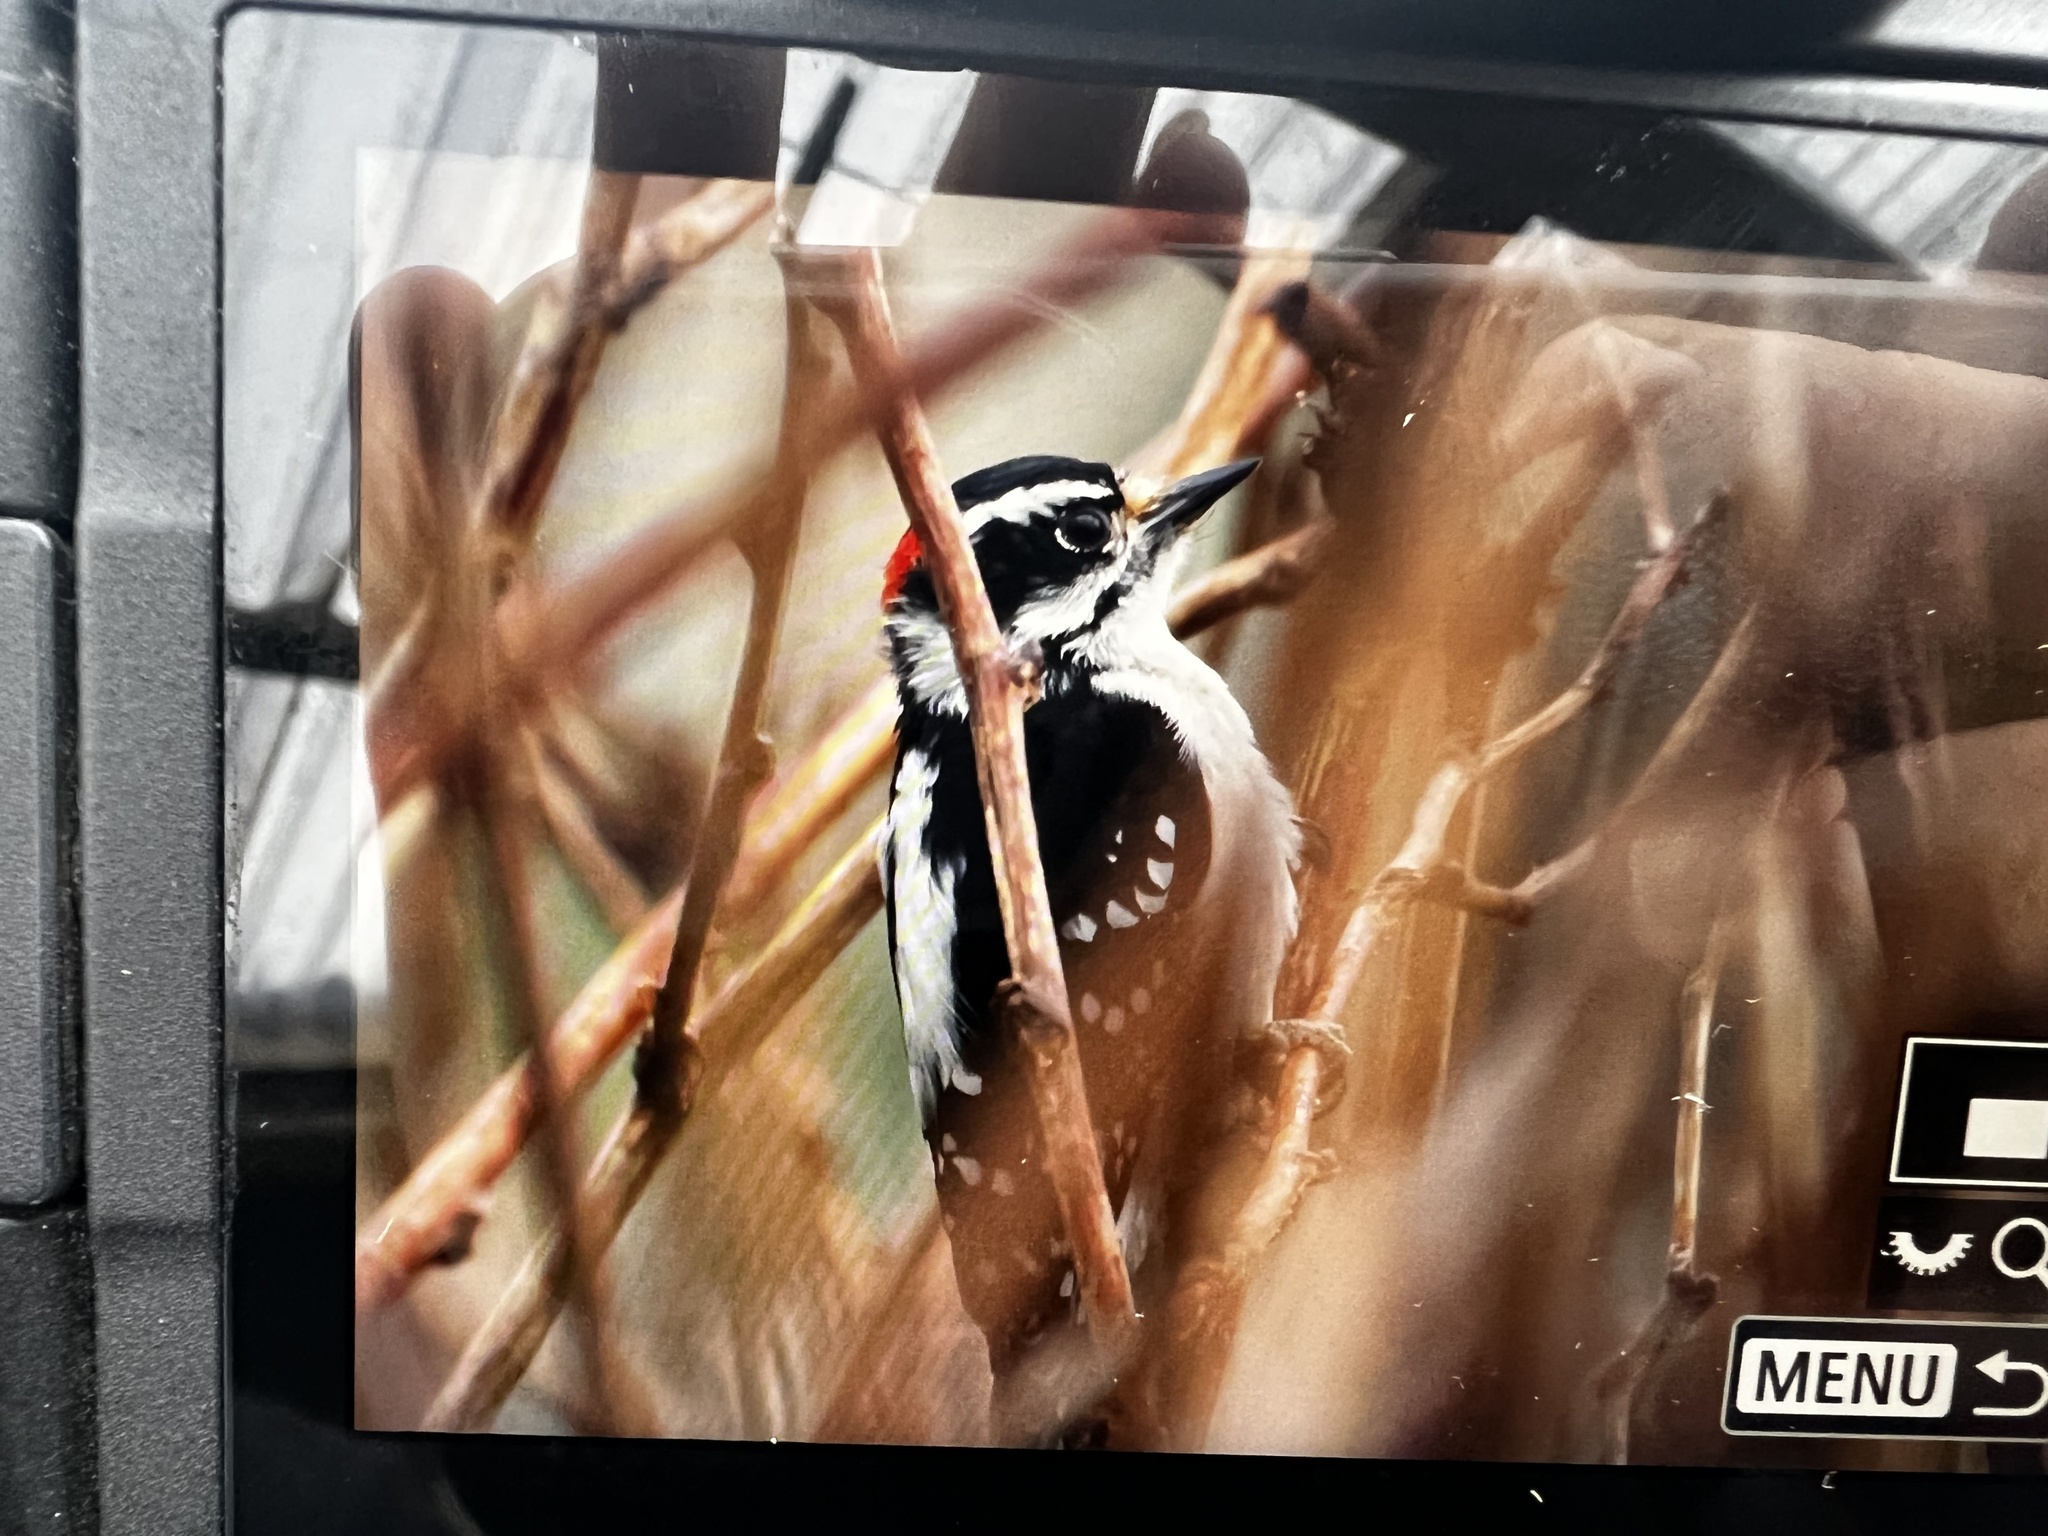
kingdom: Animalia
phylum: Chordata
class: Aves
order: Piciformes
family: Picidae
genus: Dryobates
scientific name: Dryobates pubescens
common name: Downy woodpecker
